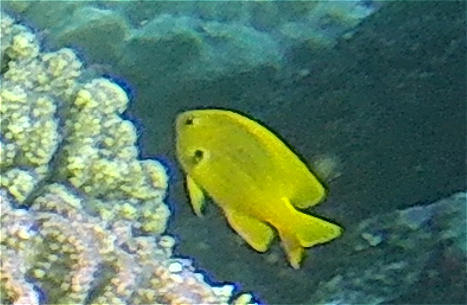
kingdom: Animalia
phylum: Chordata
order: Perciformes
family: Pomacentridae
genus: Pomacentrus
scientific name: Pomacentrus sulfureus
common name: Sulfur damsel
